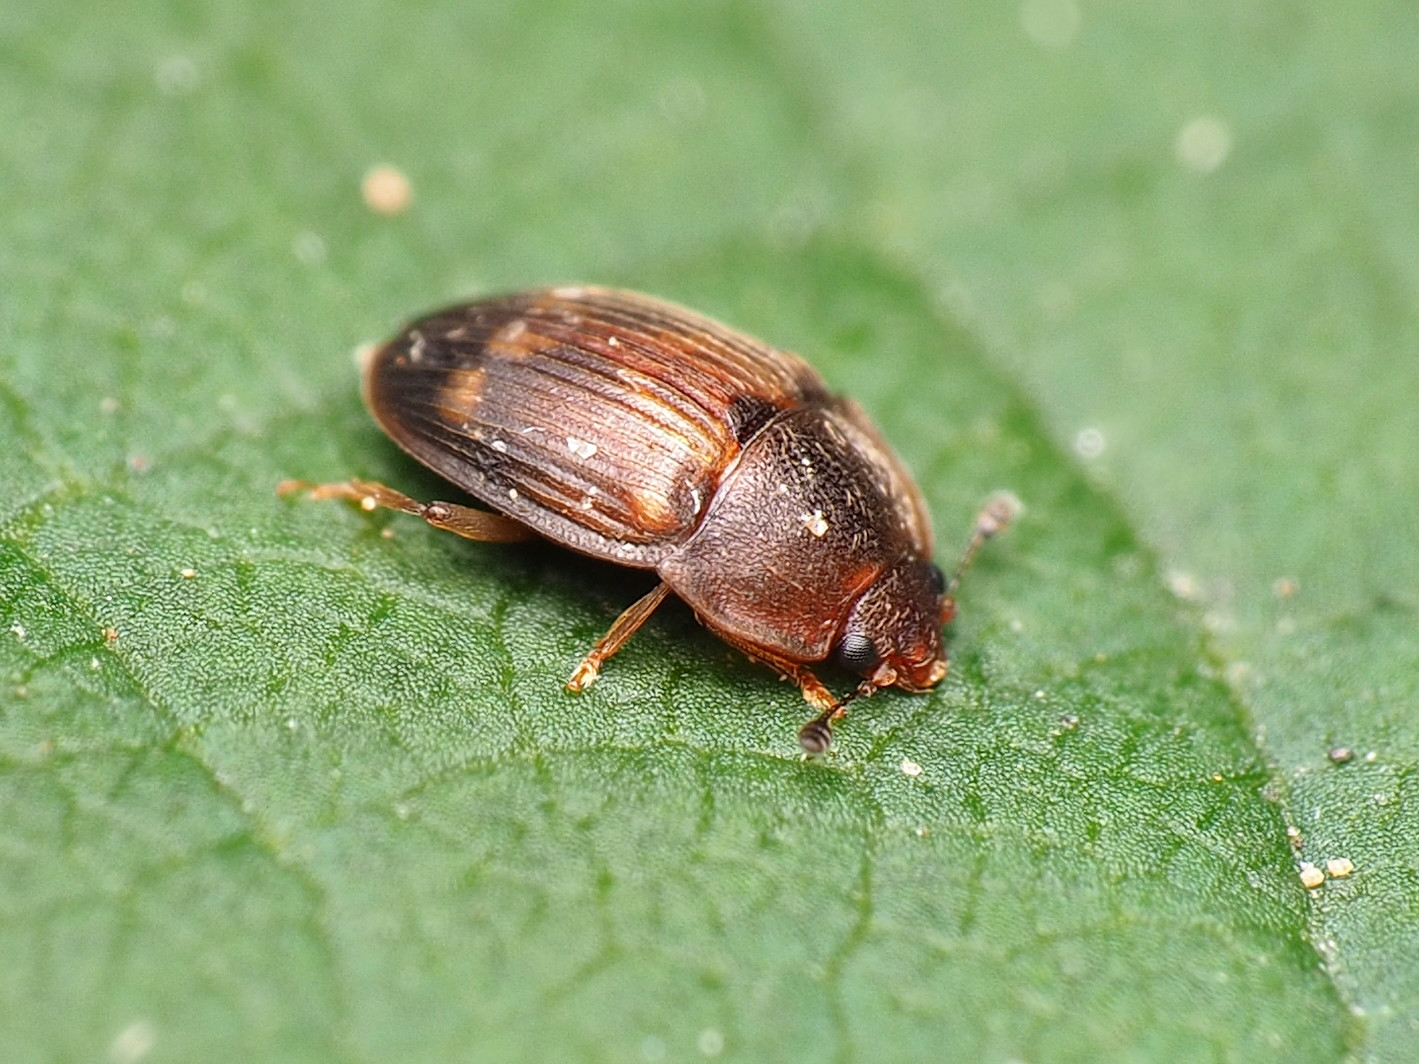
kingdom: Animalia
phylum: Arthropoda
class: Insecta
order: Coleoptera
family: Nitidulidae
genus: Stelidota
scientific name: Stelidota geminata
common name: Strawberry sap beetle
